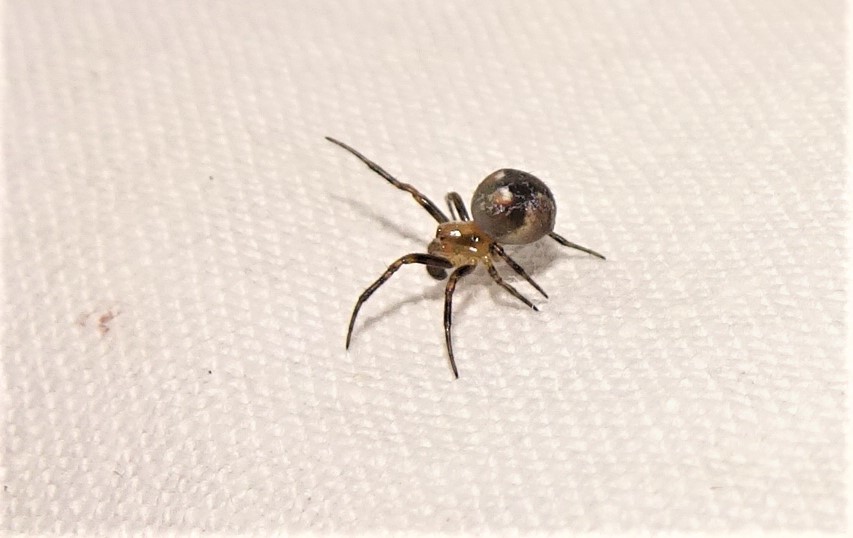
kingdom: Animalia
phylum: Arthropoda
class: Arachnida
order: Araneae
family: Araneidae
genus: Araneus
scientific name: Araneus albotriangulus
